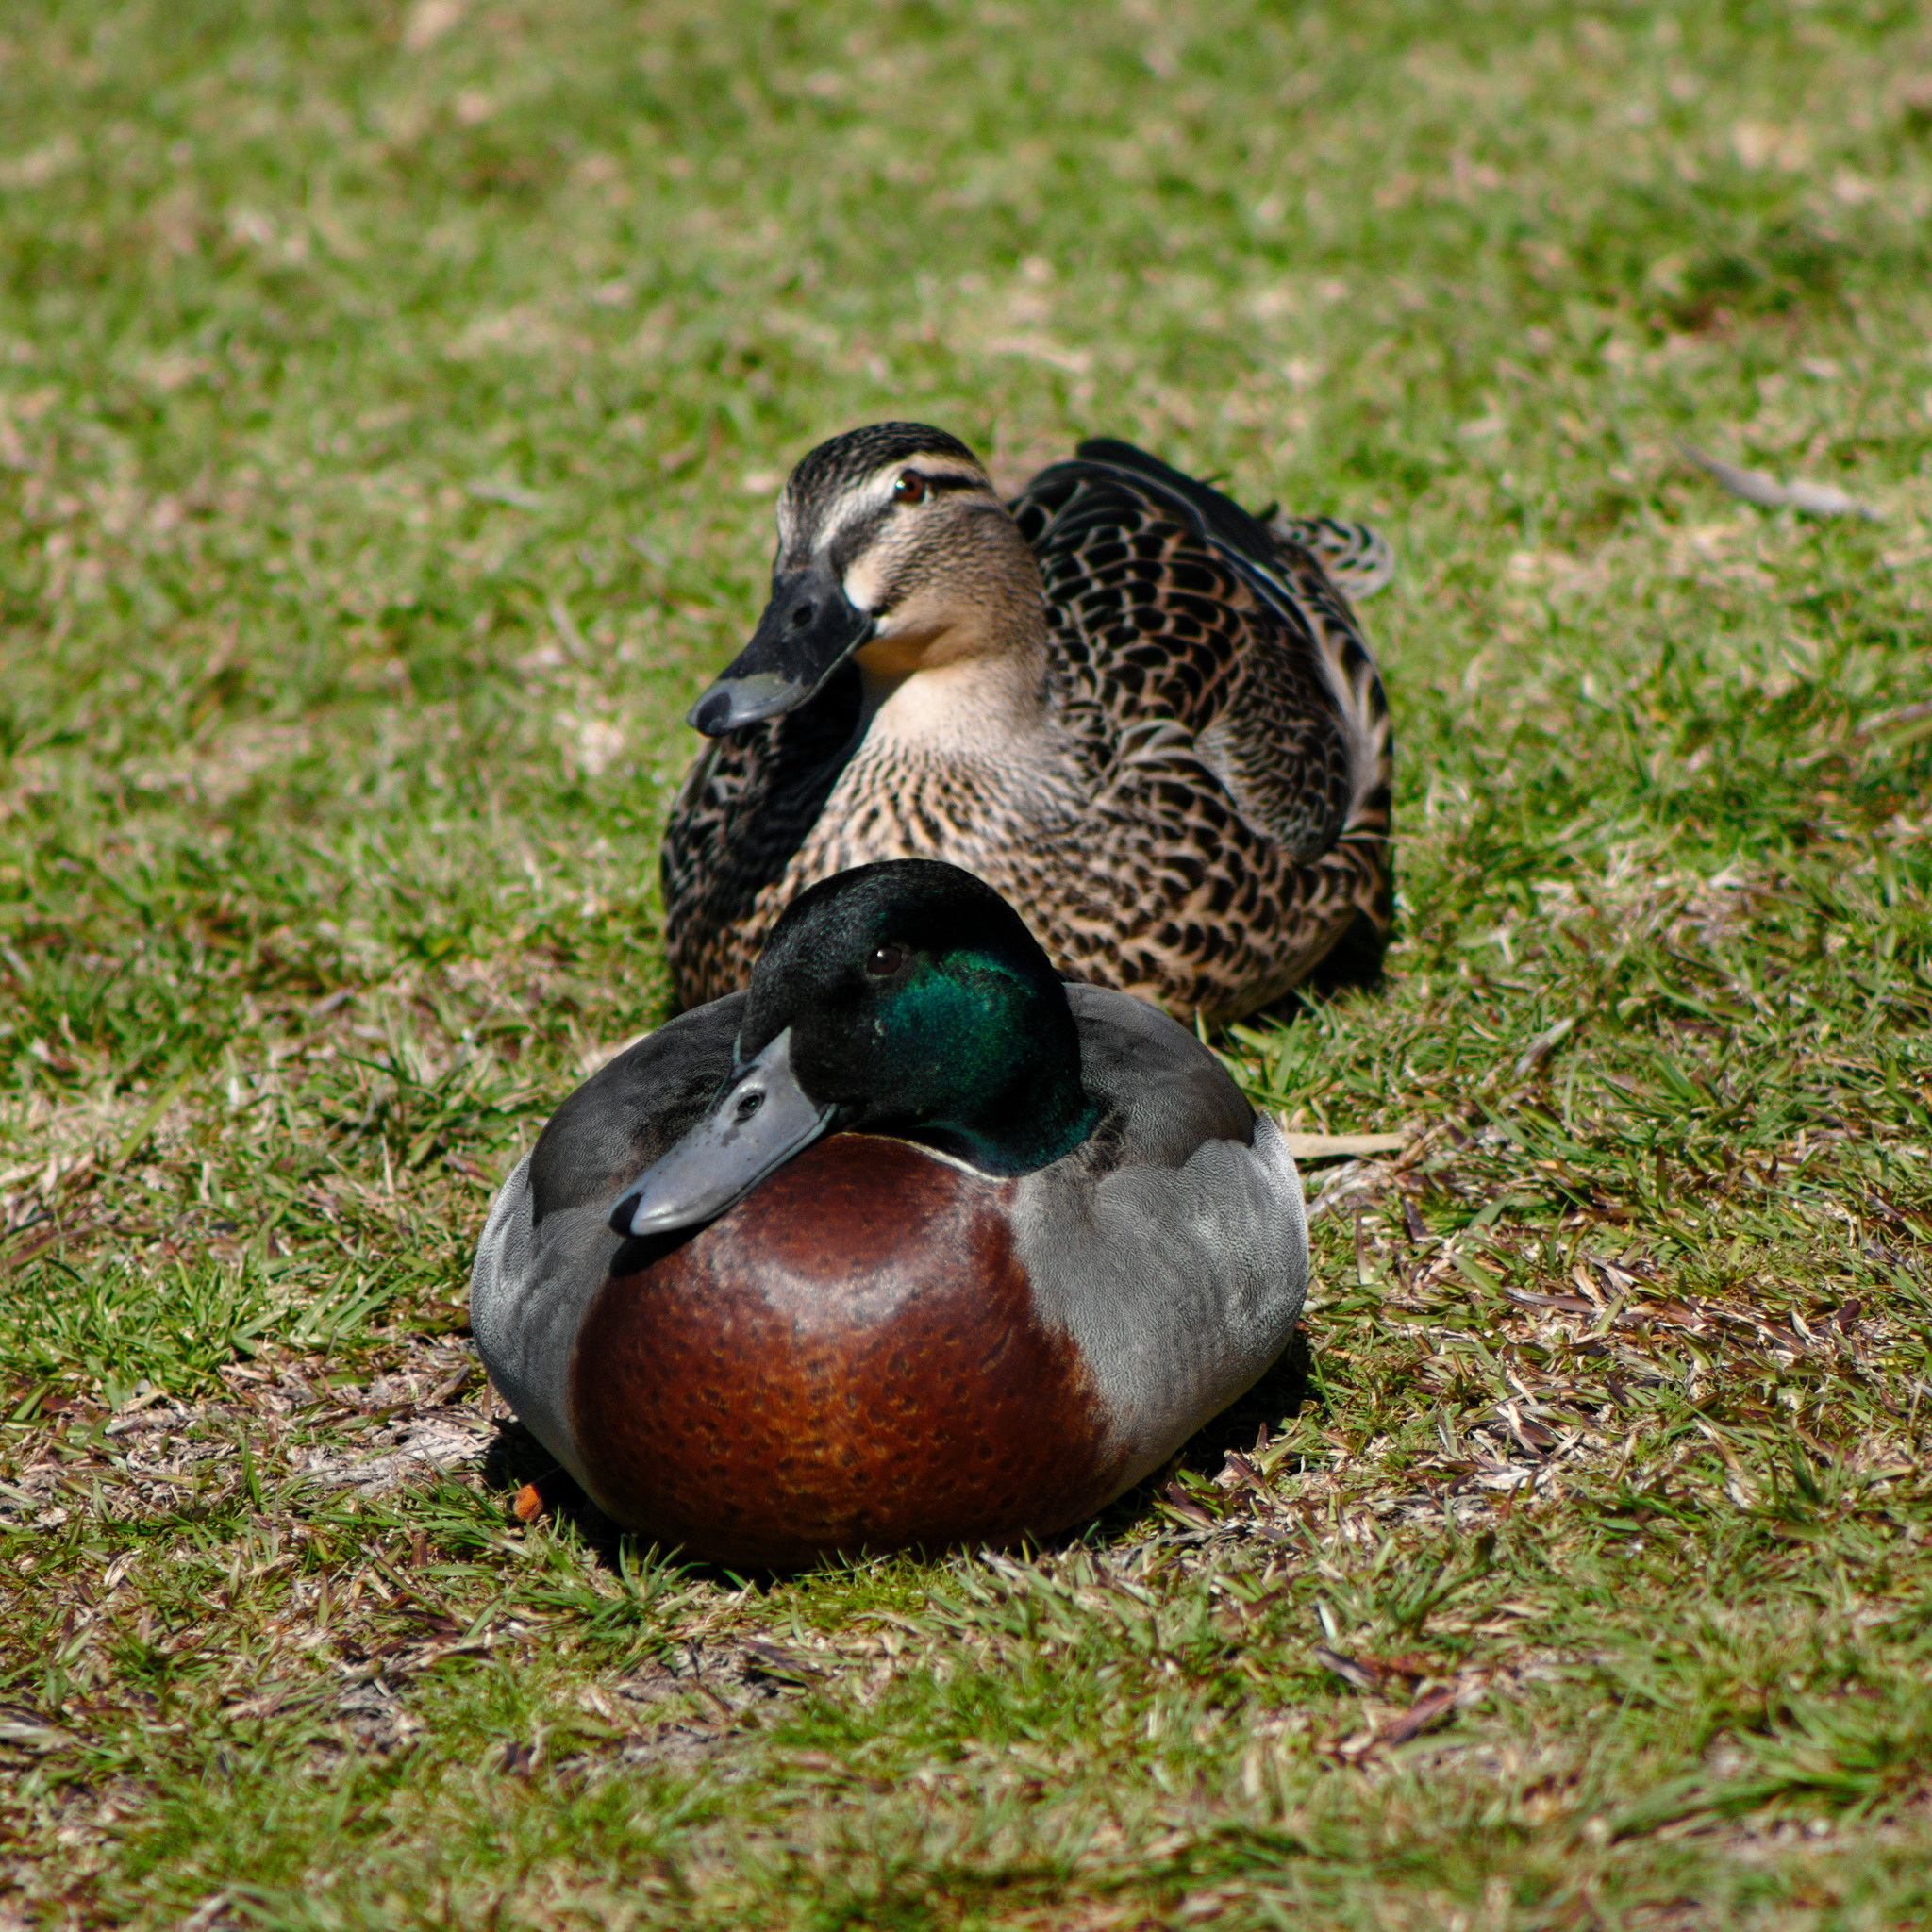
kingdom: Animalia
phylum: Chordata
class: Aves
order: Anseriformes
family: Anatidae
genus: Anas
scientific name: Anas platyrhynchos
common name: Mallard
